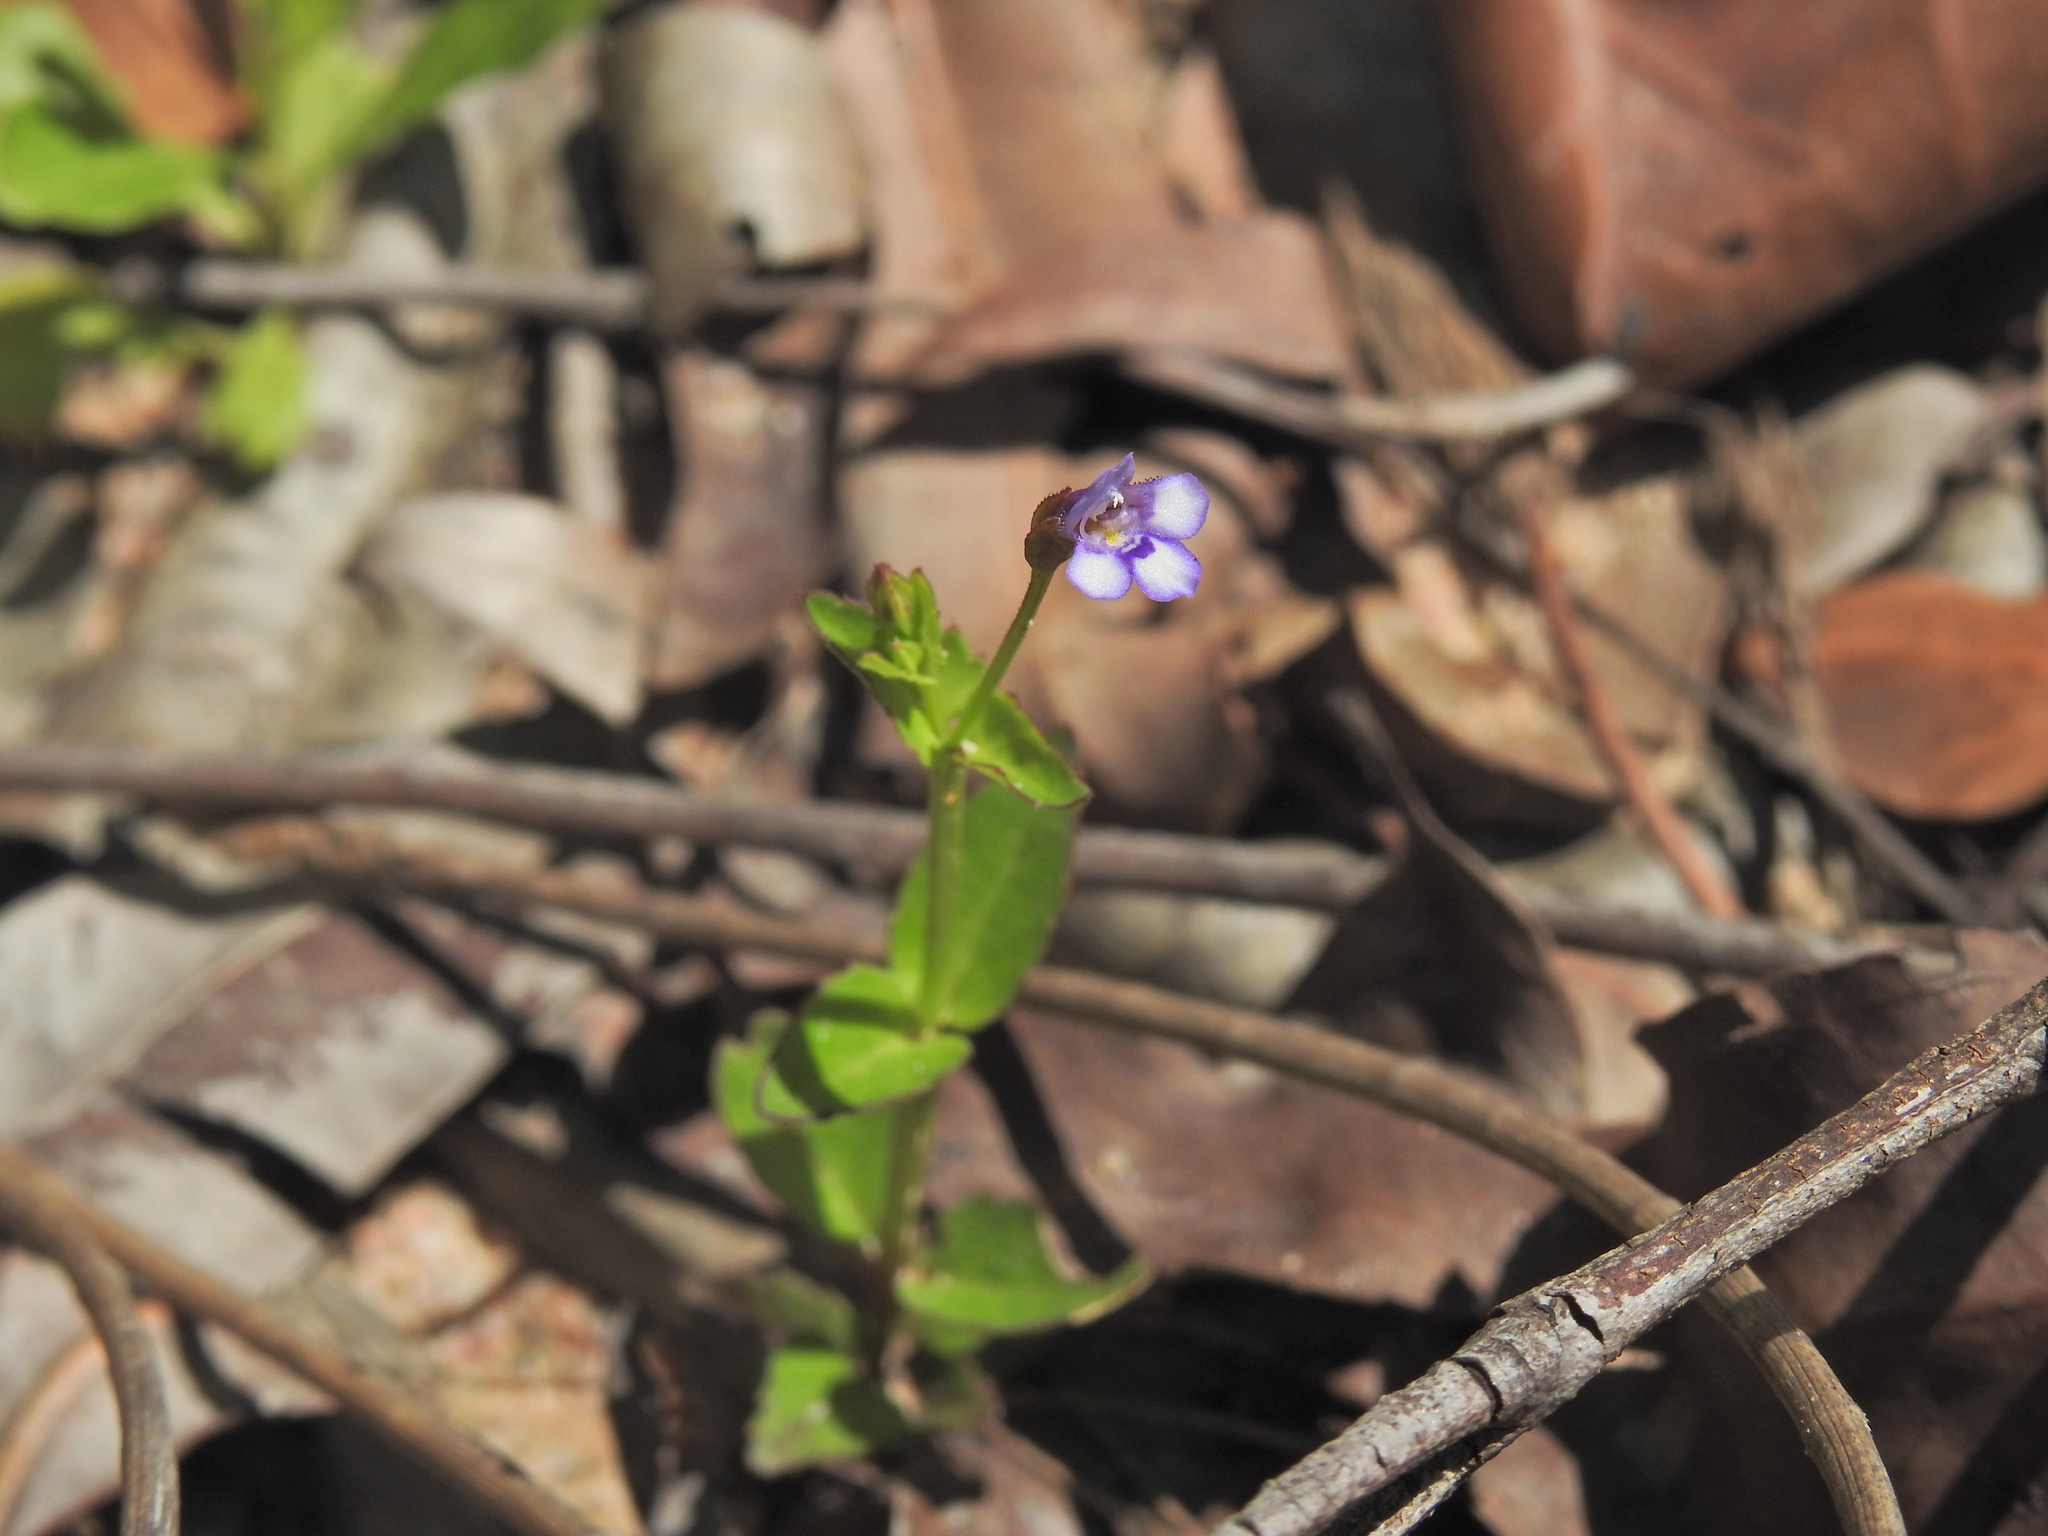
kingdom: Plantae
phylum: Tracheophyta
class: Magnoliopsida
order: Lamiales
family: Linderniaceae
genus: Torenia
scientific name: Torenia crustacea
